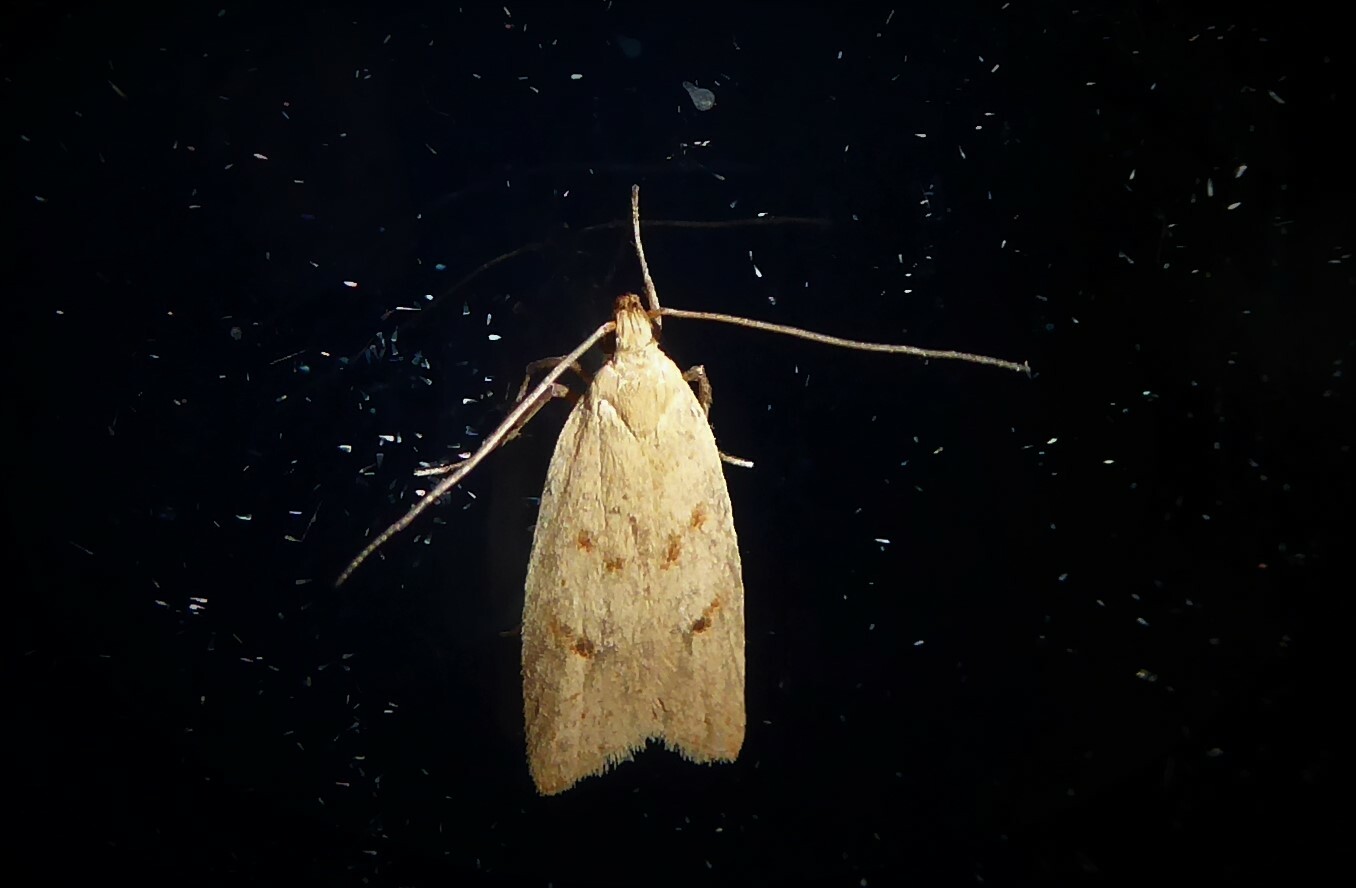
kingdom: Animalia
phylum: Arthropoda
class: Insecta
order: Lepidoptera
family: Oecophoridae
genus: Gymnobathra
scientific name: Gymnobathra sarcoxantha
